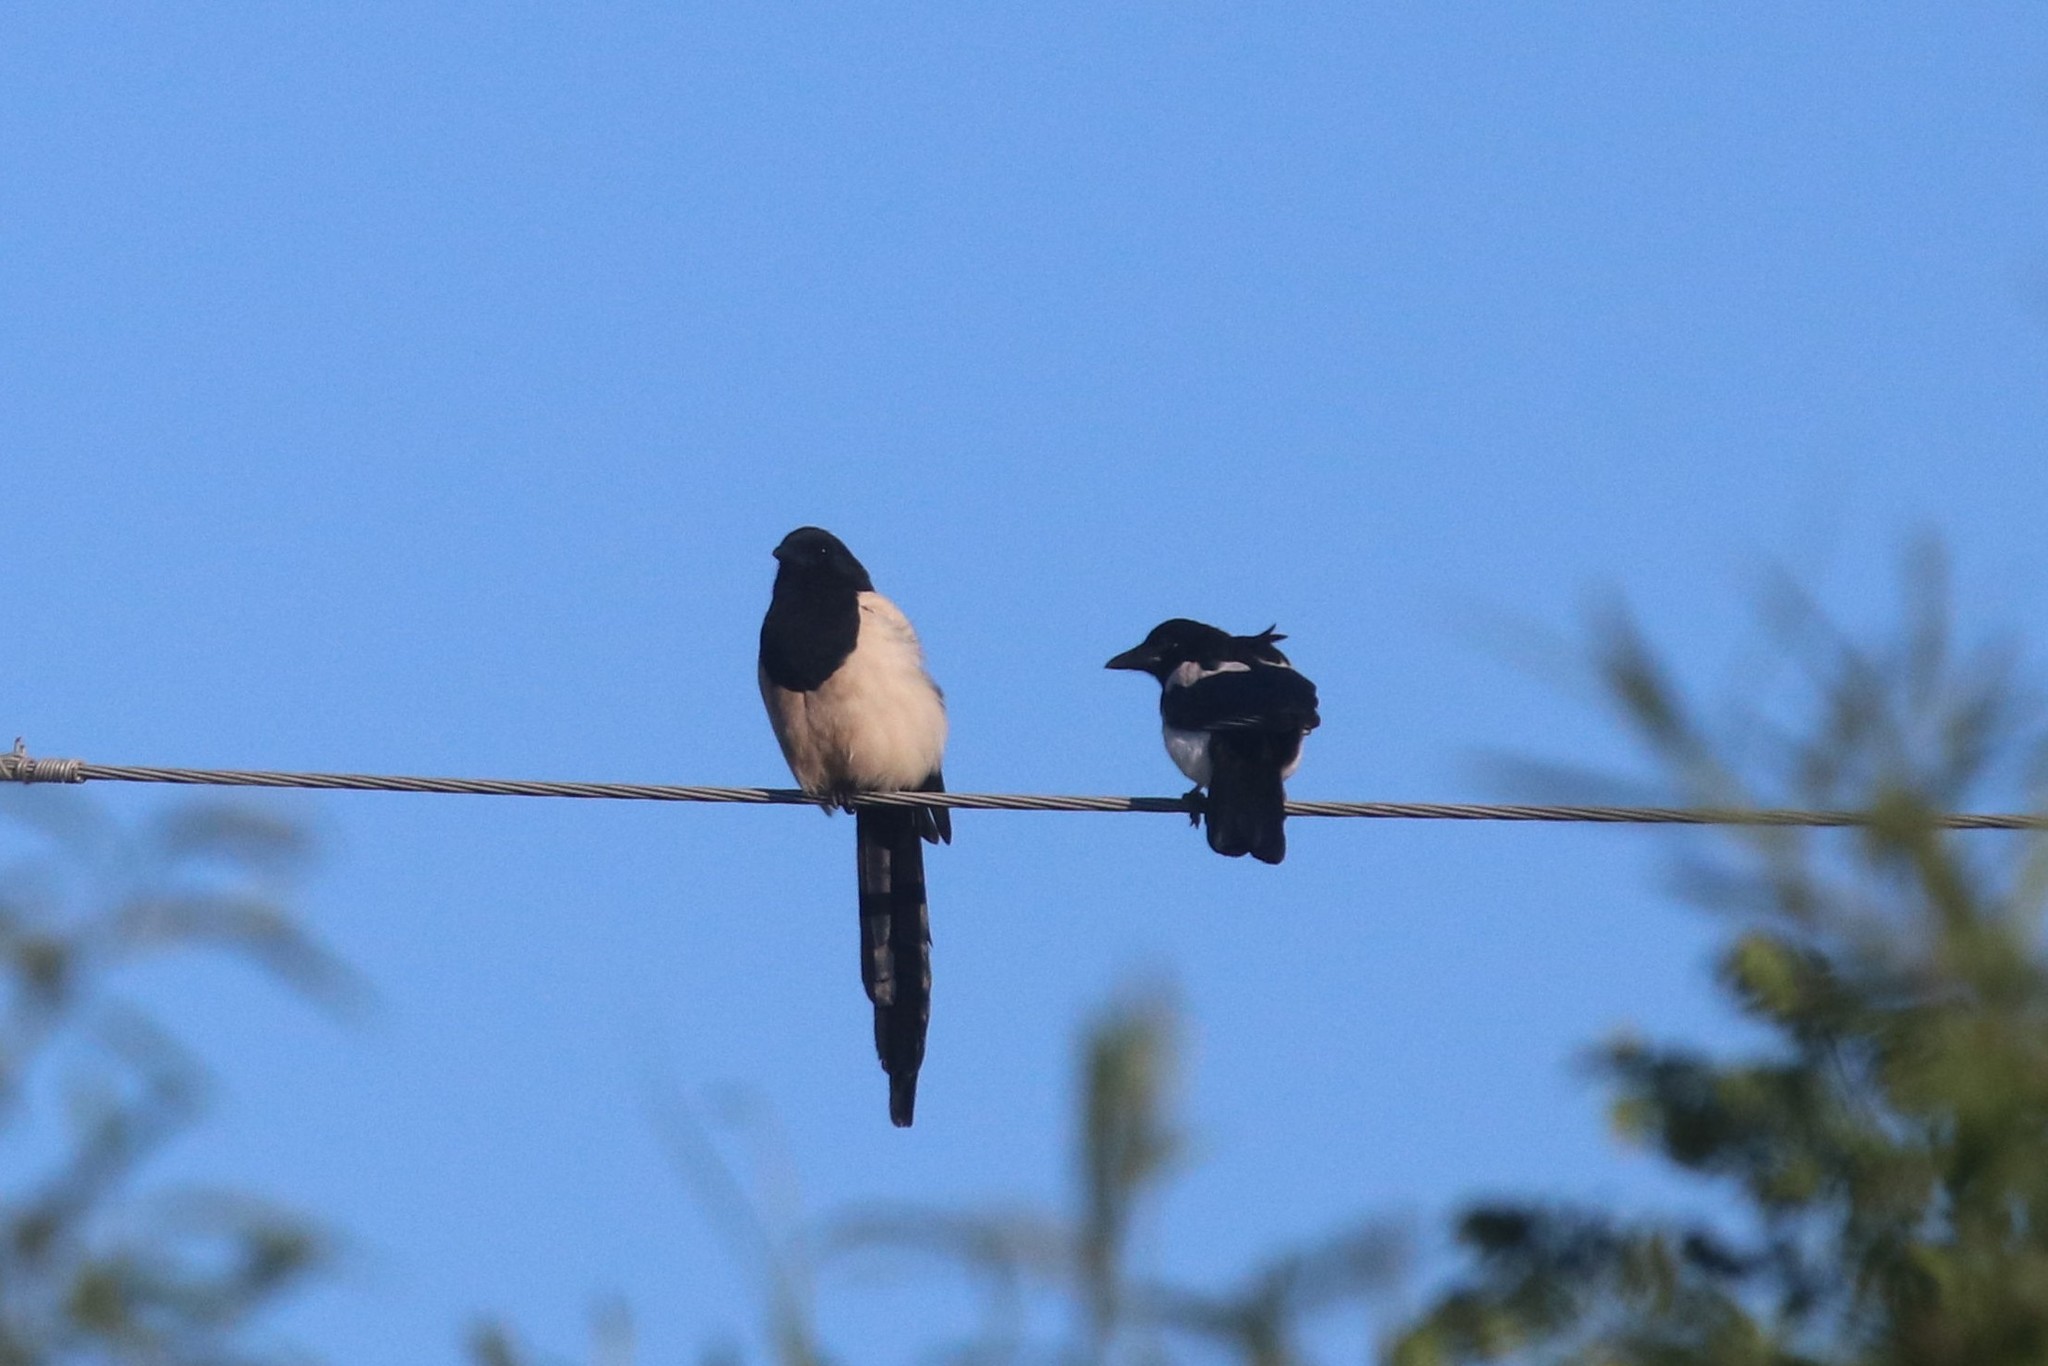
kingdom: Animalia
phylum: Chordata
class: Aves
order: Passeriformes
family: Corvidae
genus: Pica
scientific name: Pica pica
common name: Eurasian magpie
